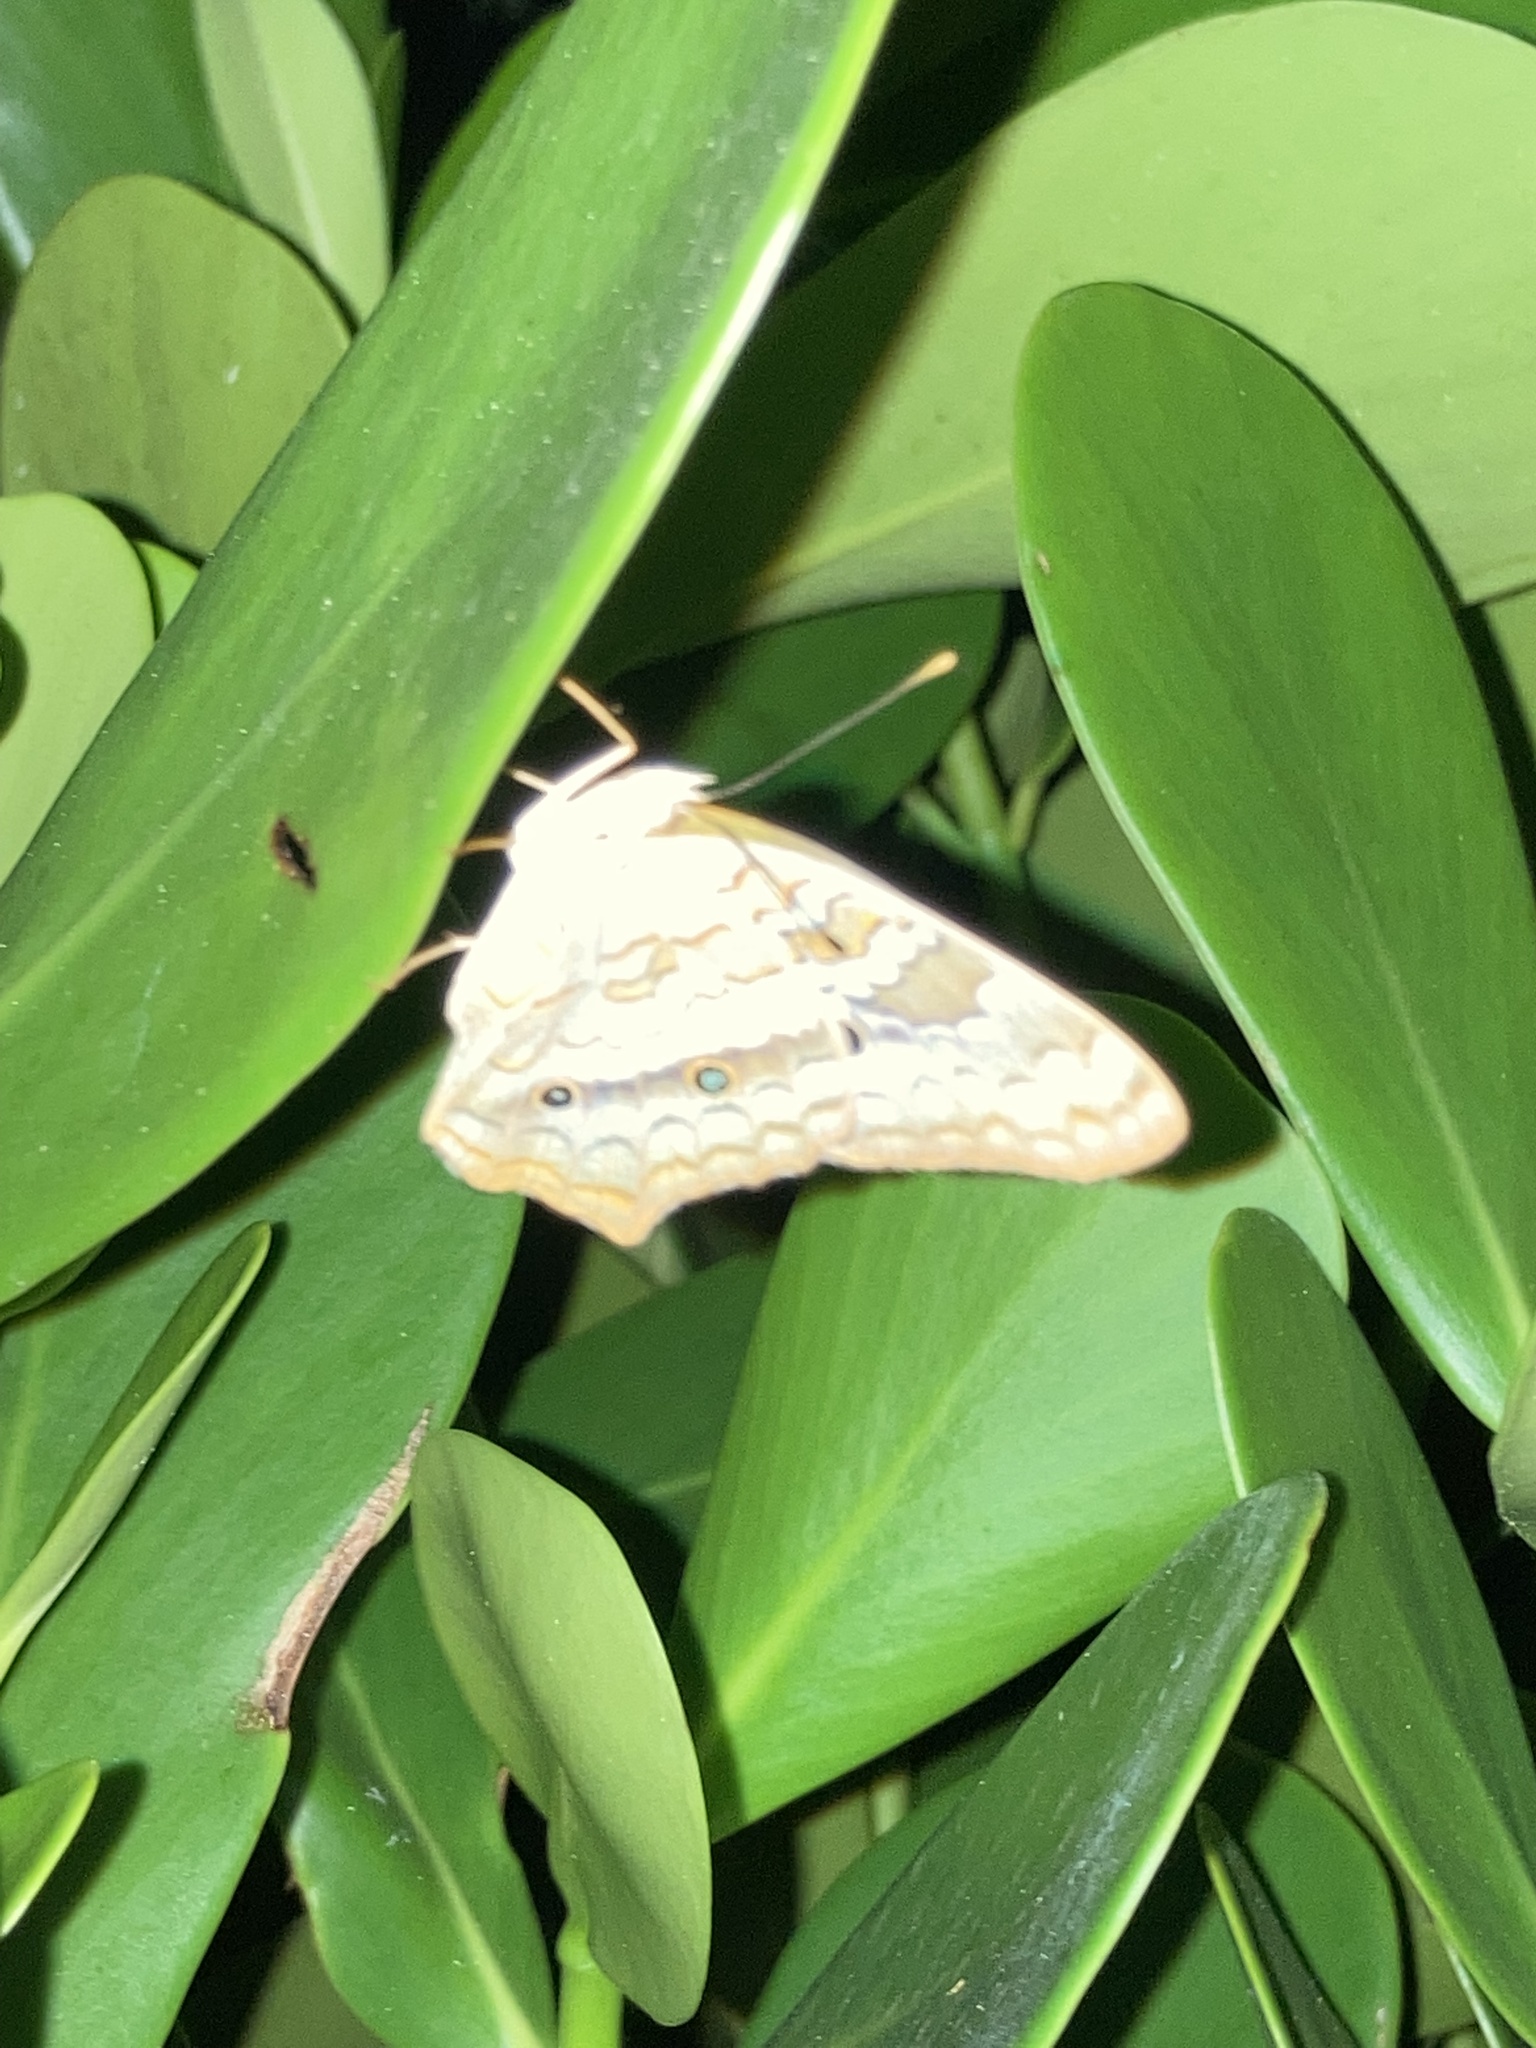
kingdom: Animalia
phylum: Arthropoda
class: Insecta
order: Lepidoptera
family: Nymphalidae
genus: Anartia
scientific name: Anartia jatrophae
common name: White peacock
